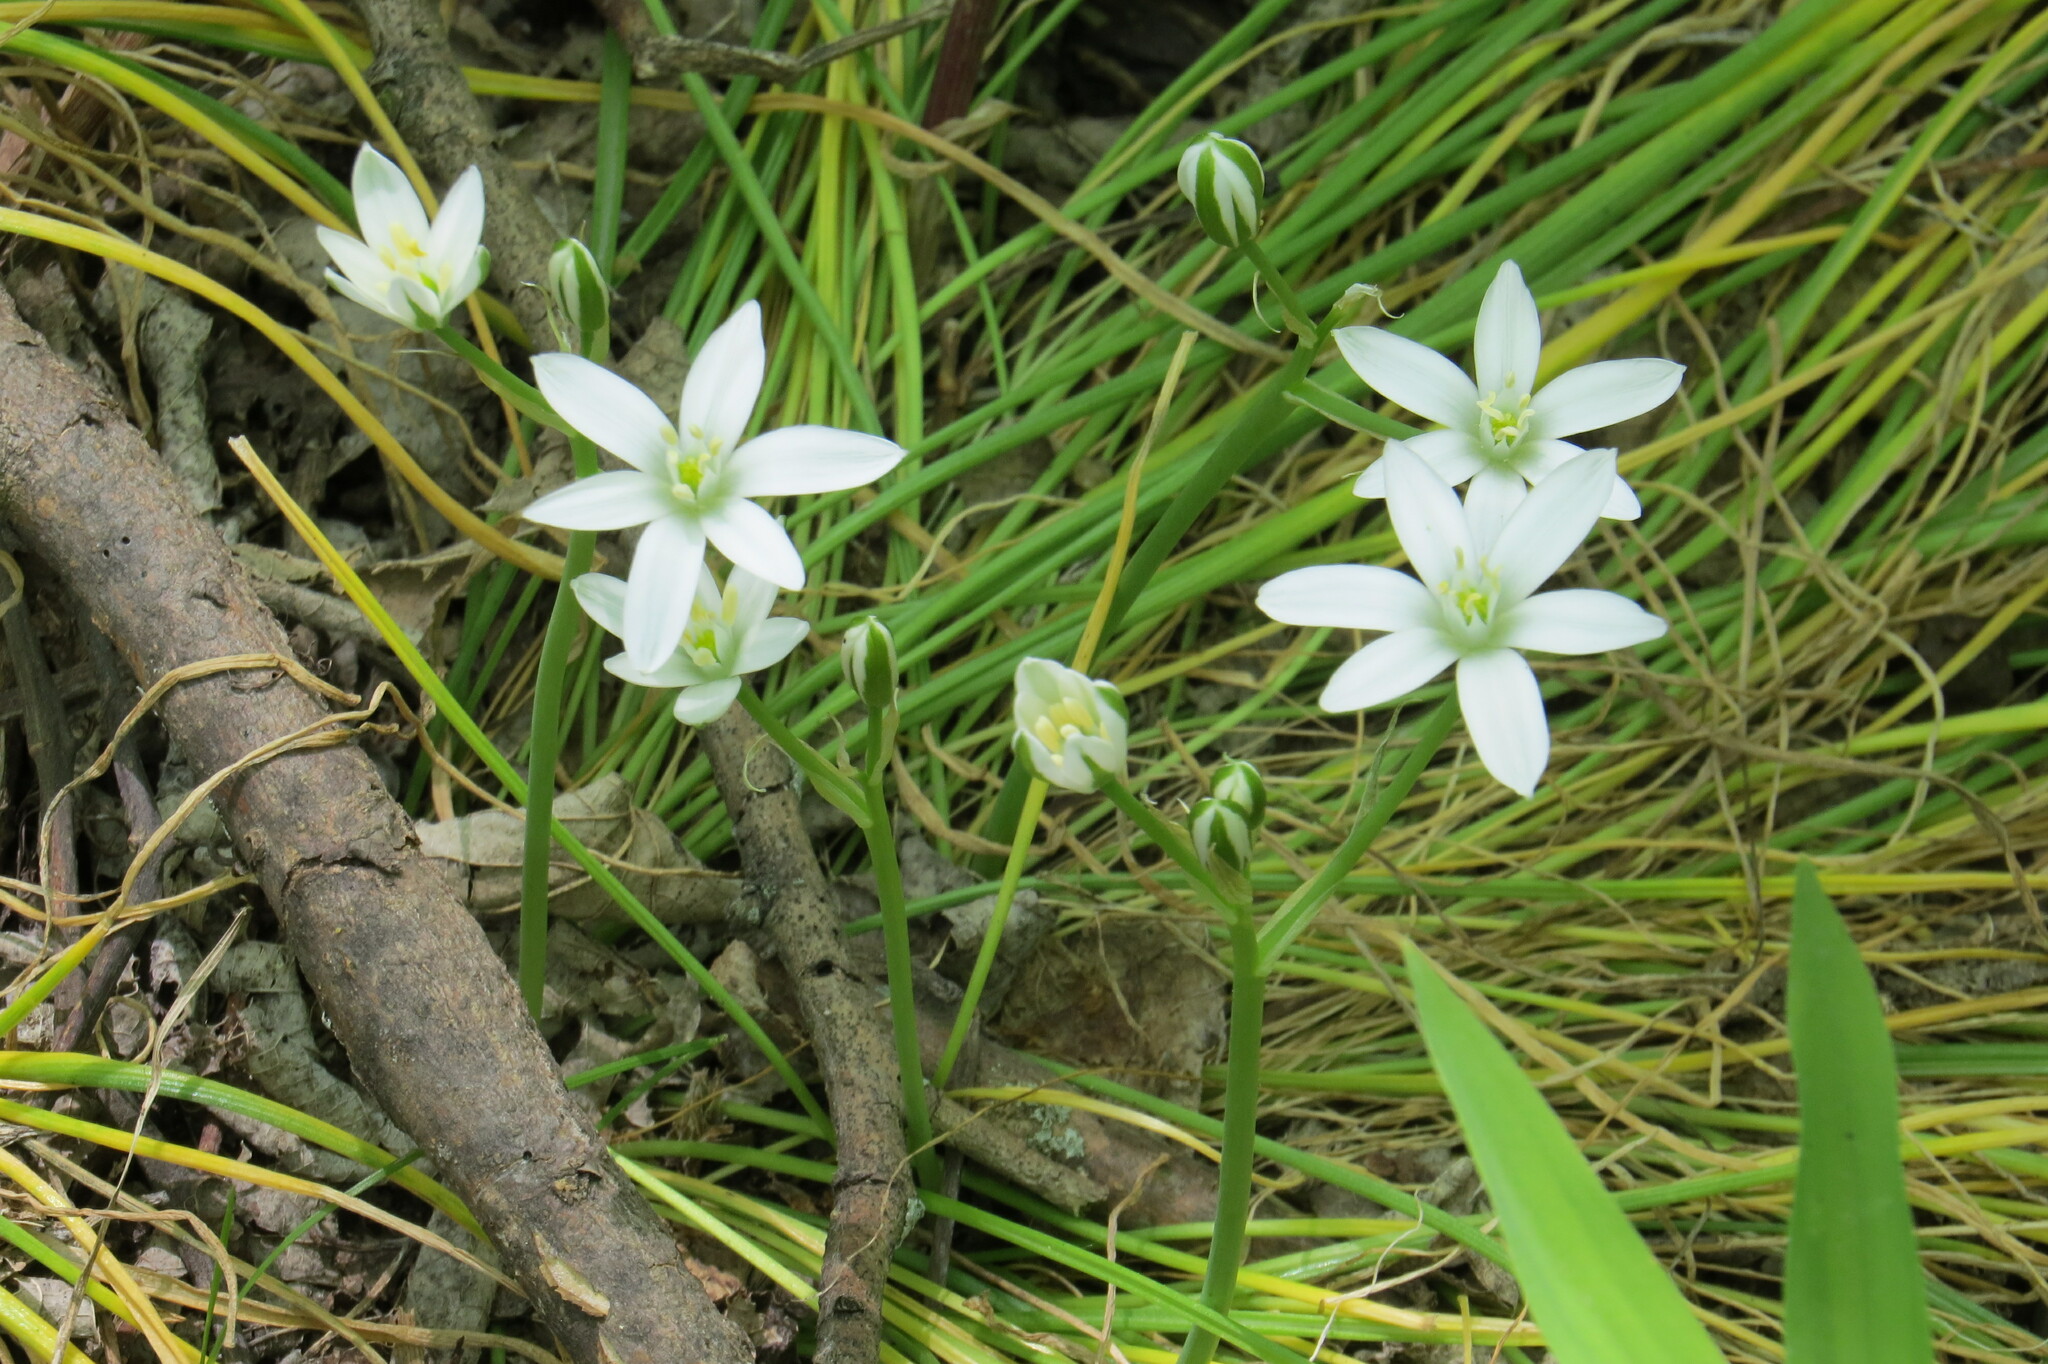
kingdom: Plantae
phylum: Tracheophyta
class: Liliopsida
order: Asparagales
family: Asparagaceae
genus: Ornithogalum
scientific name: Ornithogalum umbellatum
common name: Garden star-of-bethlehem
